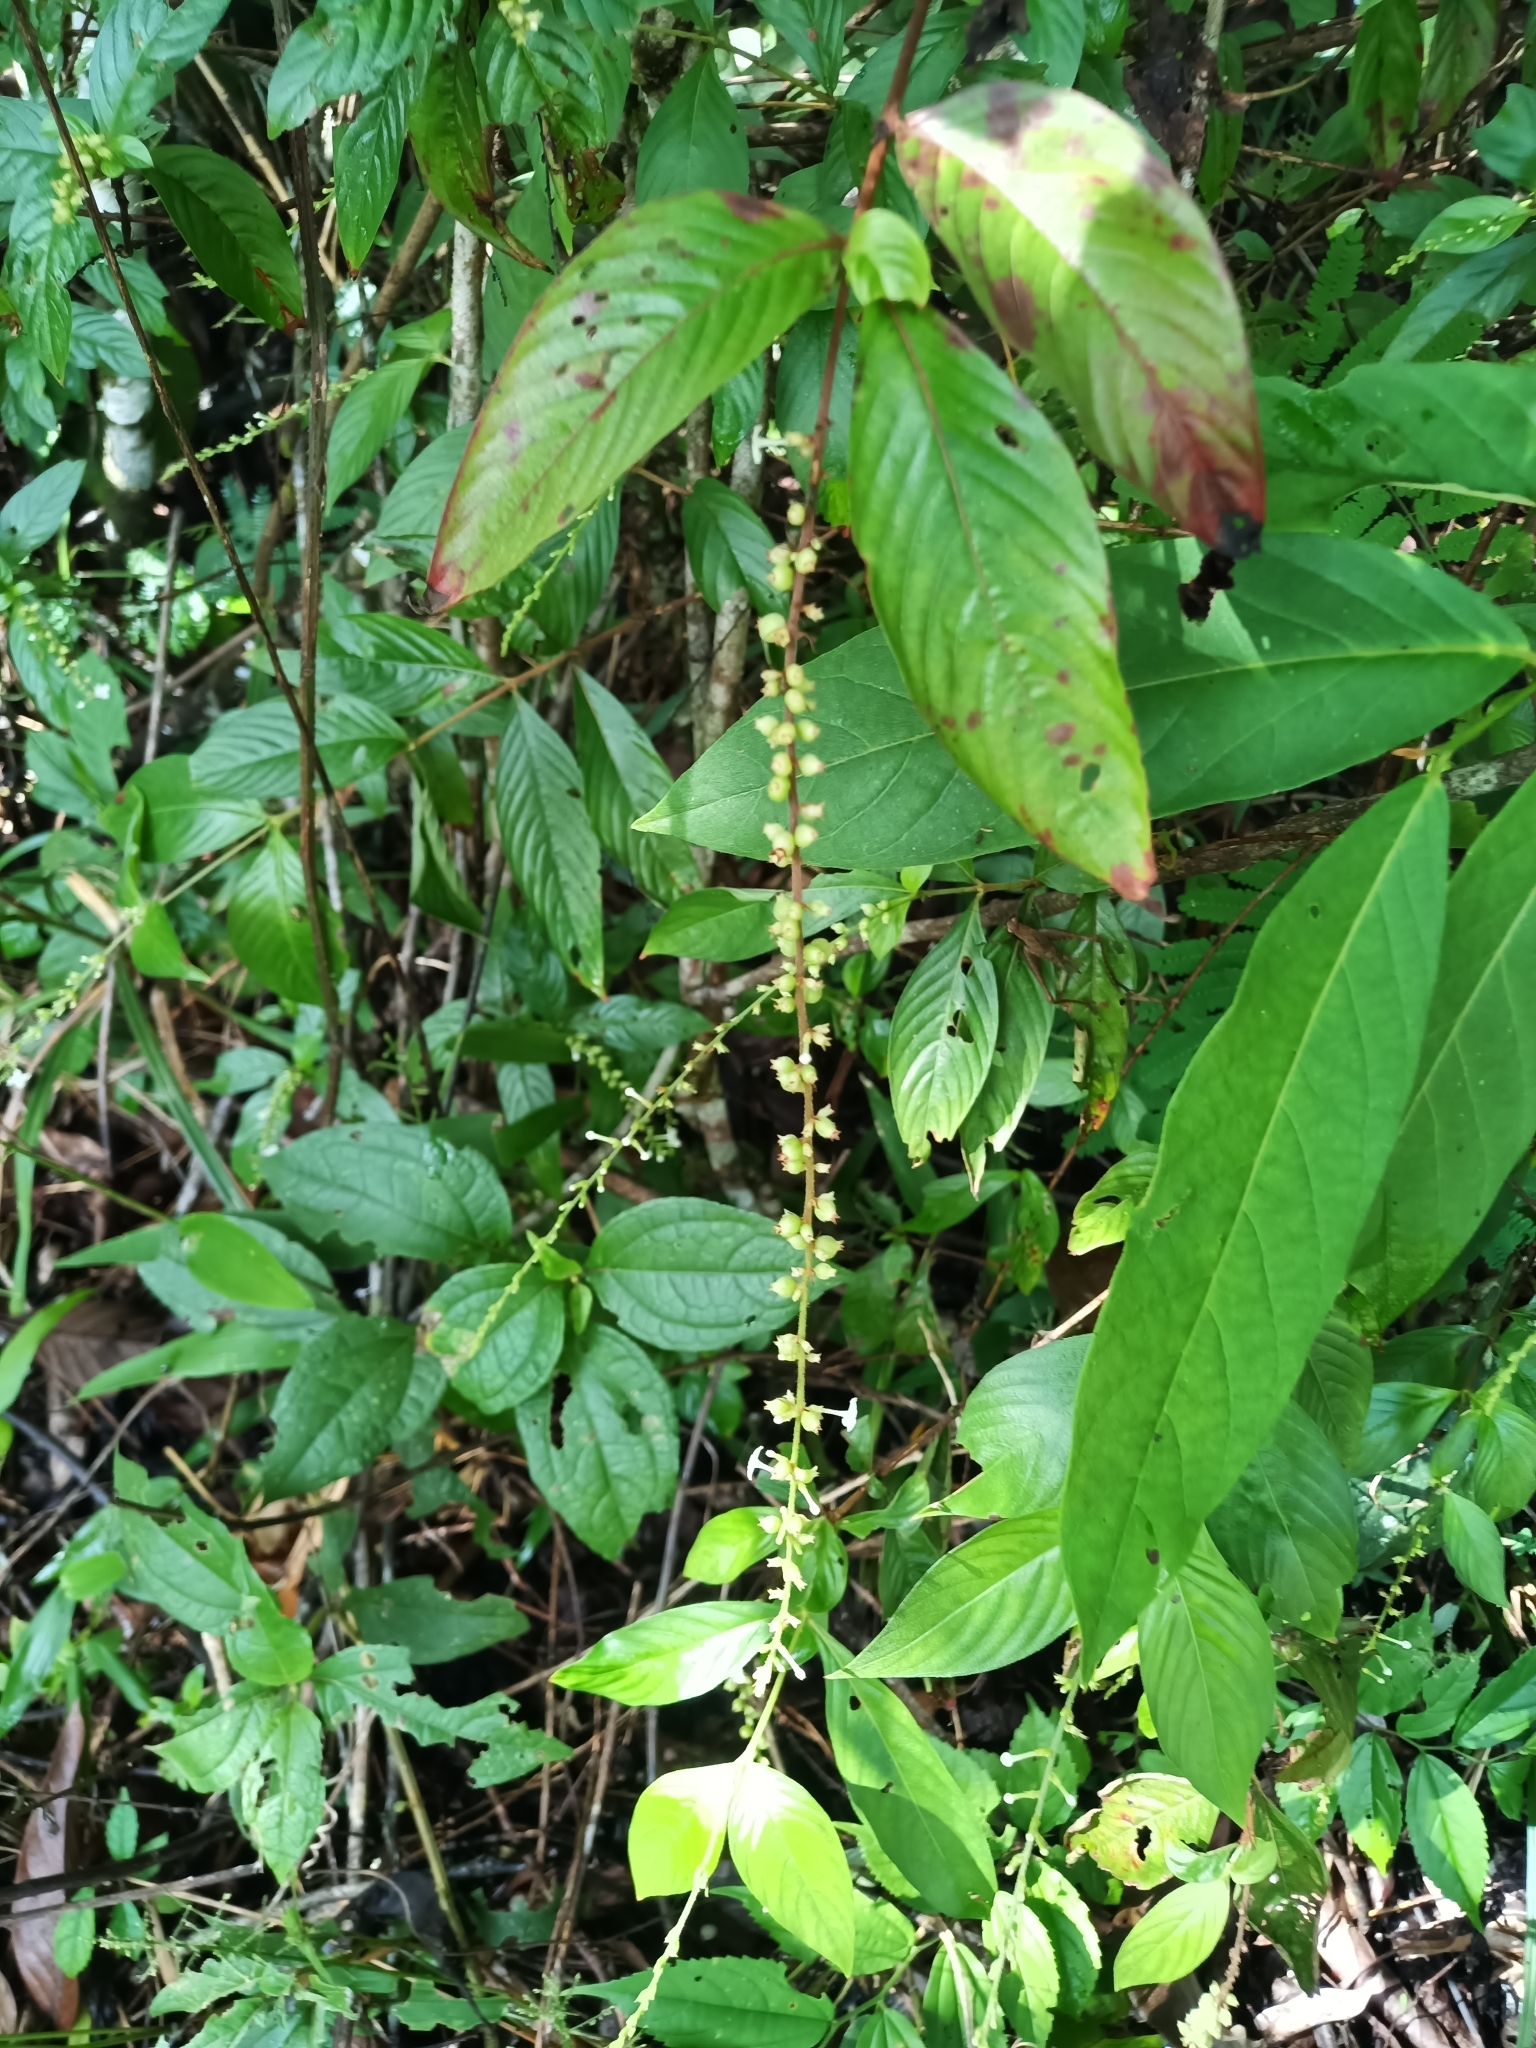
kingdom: Plantae
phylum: Tracheophyta
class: Magnoliopsida
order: Gentianales
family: Rubiaceae
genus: Gonzalagunia
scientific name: Gonzalagunia dicocca
